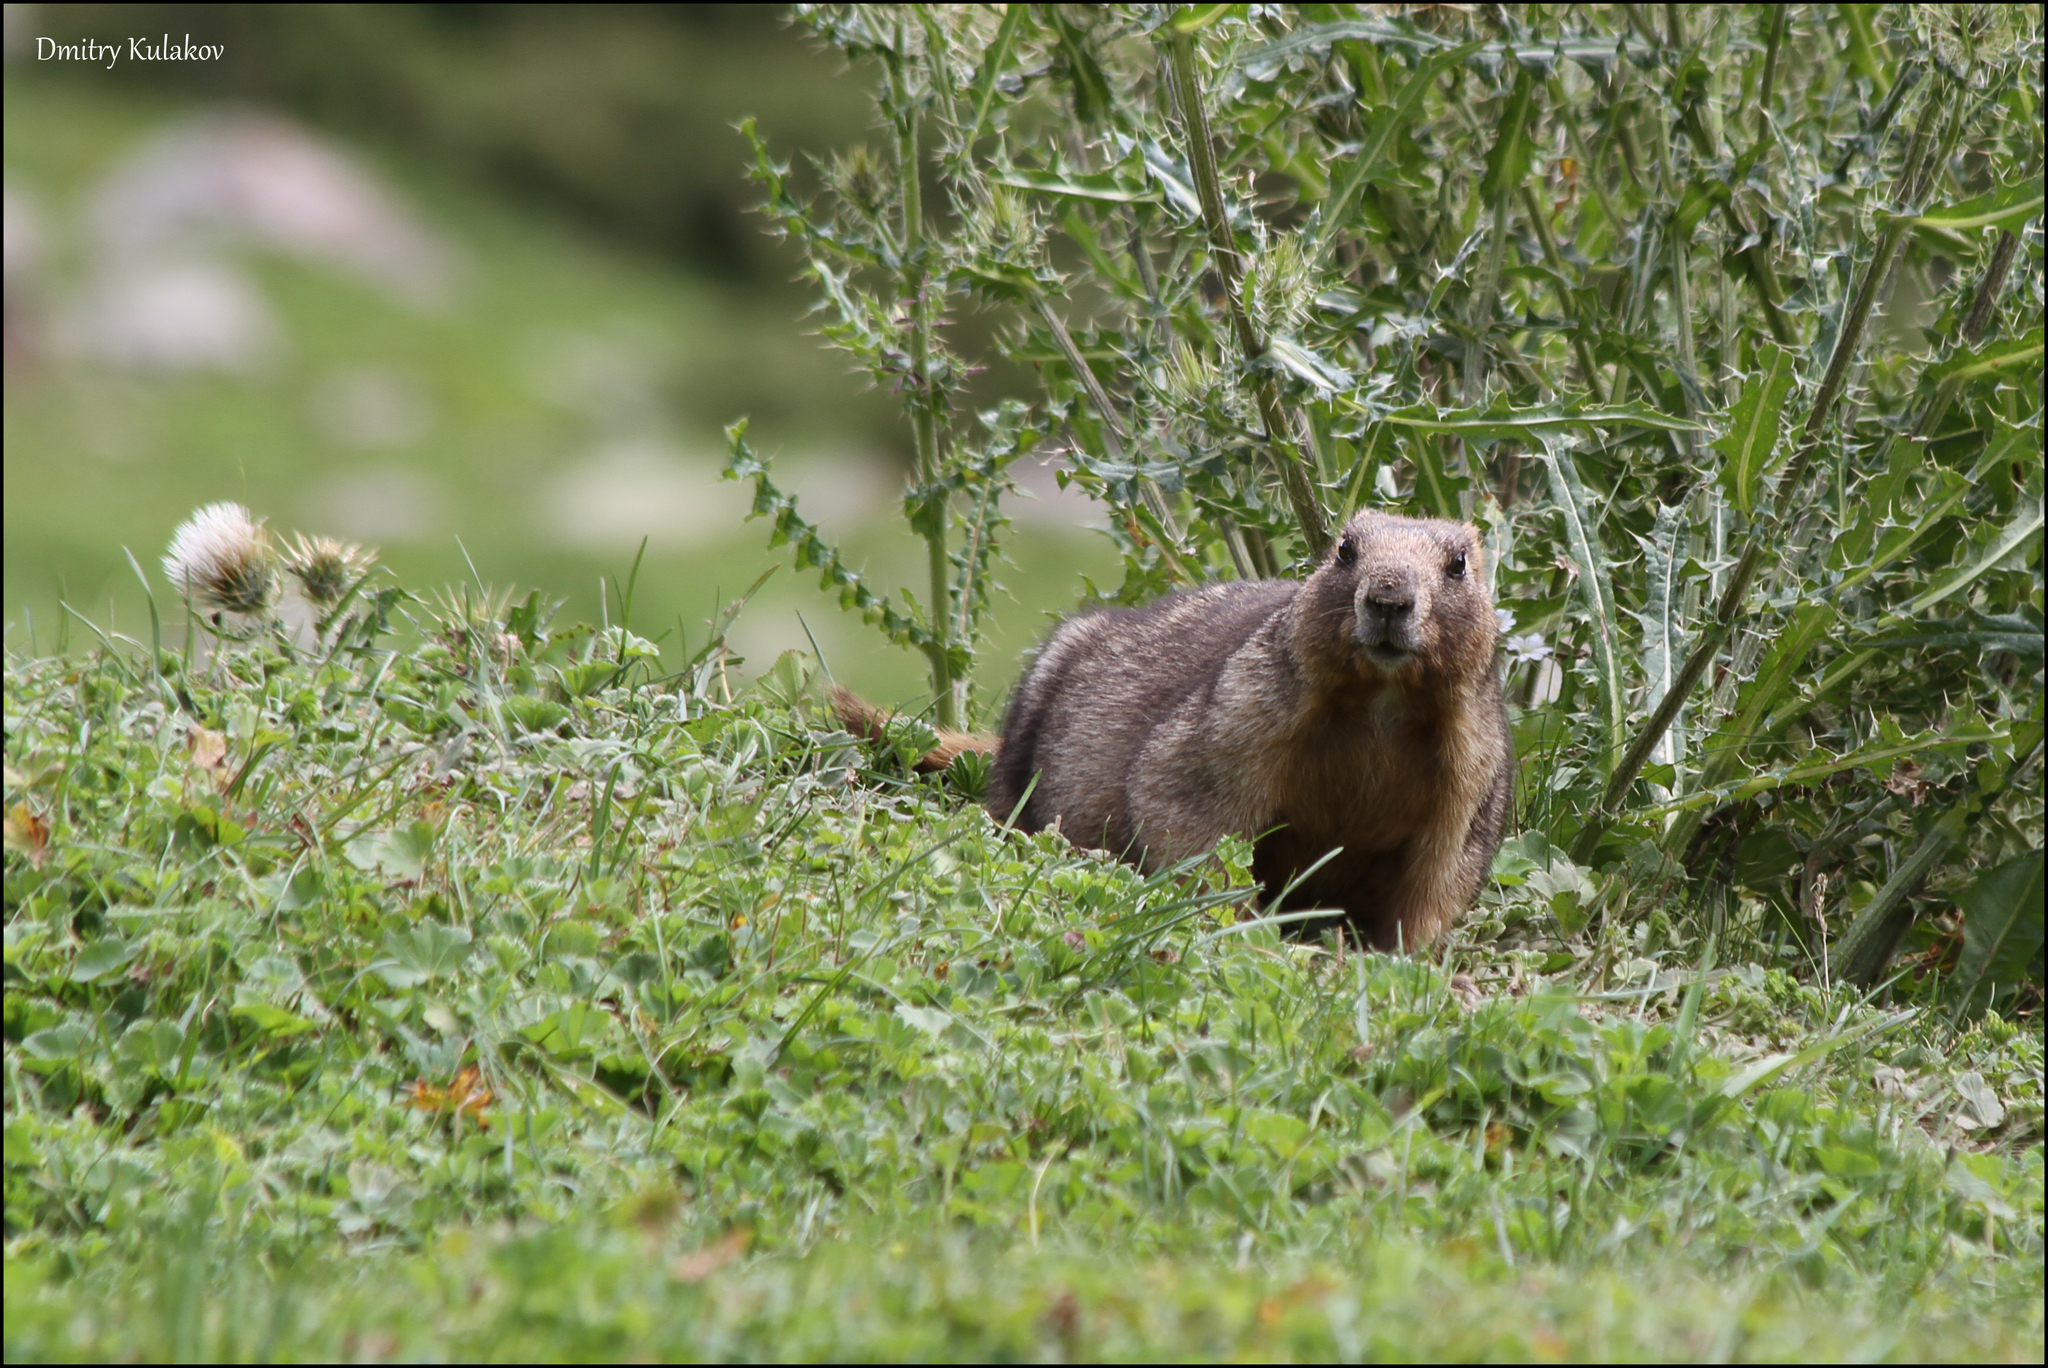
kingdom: Animalia
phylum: Chordata
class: Mammalia
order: Rodentia
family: Sciuridae
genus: Marmota
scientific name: Marmota baibacina
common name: Gray marmot
